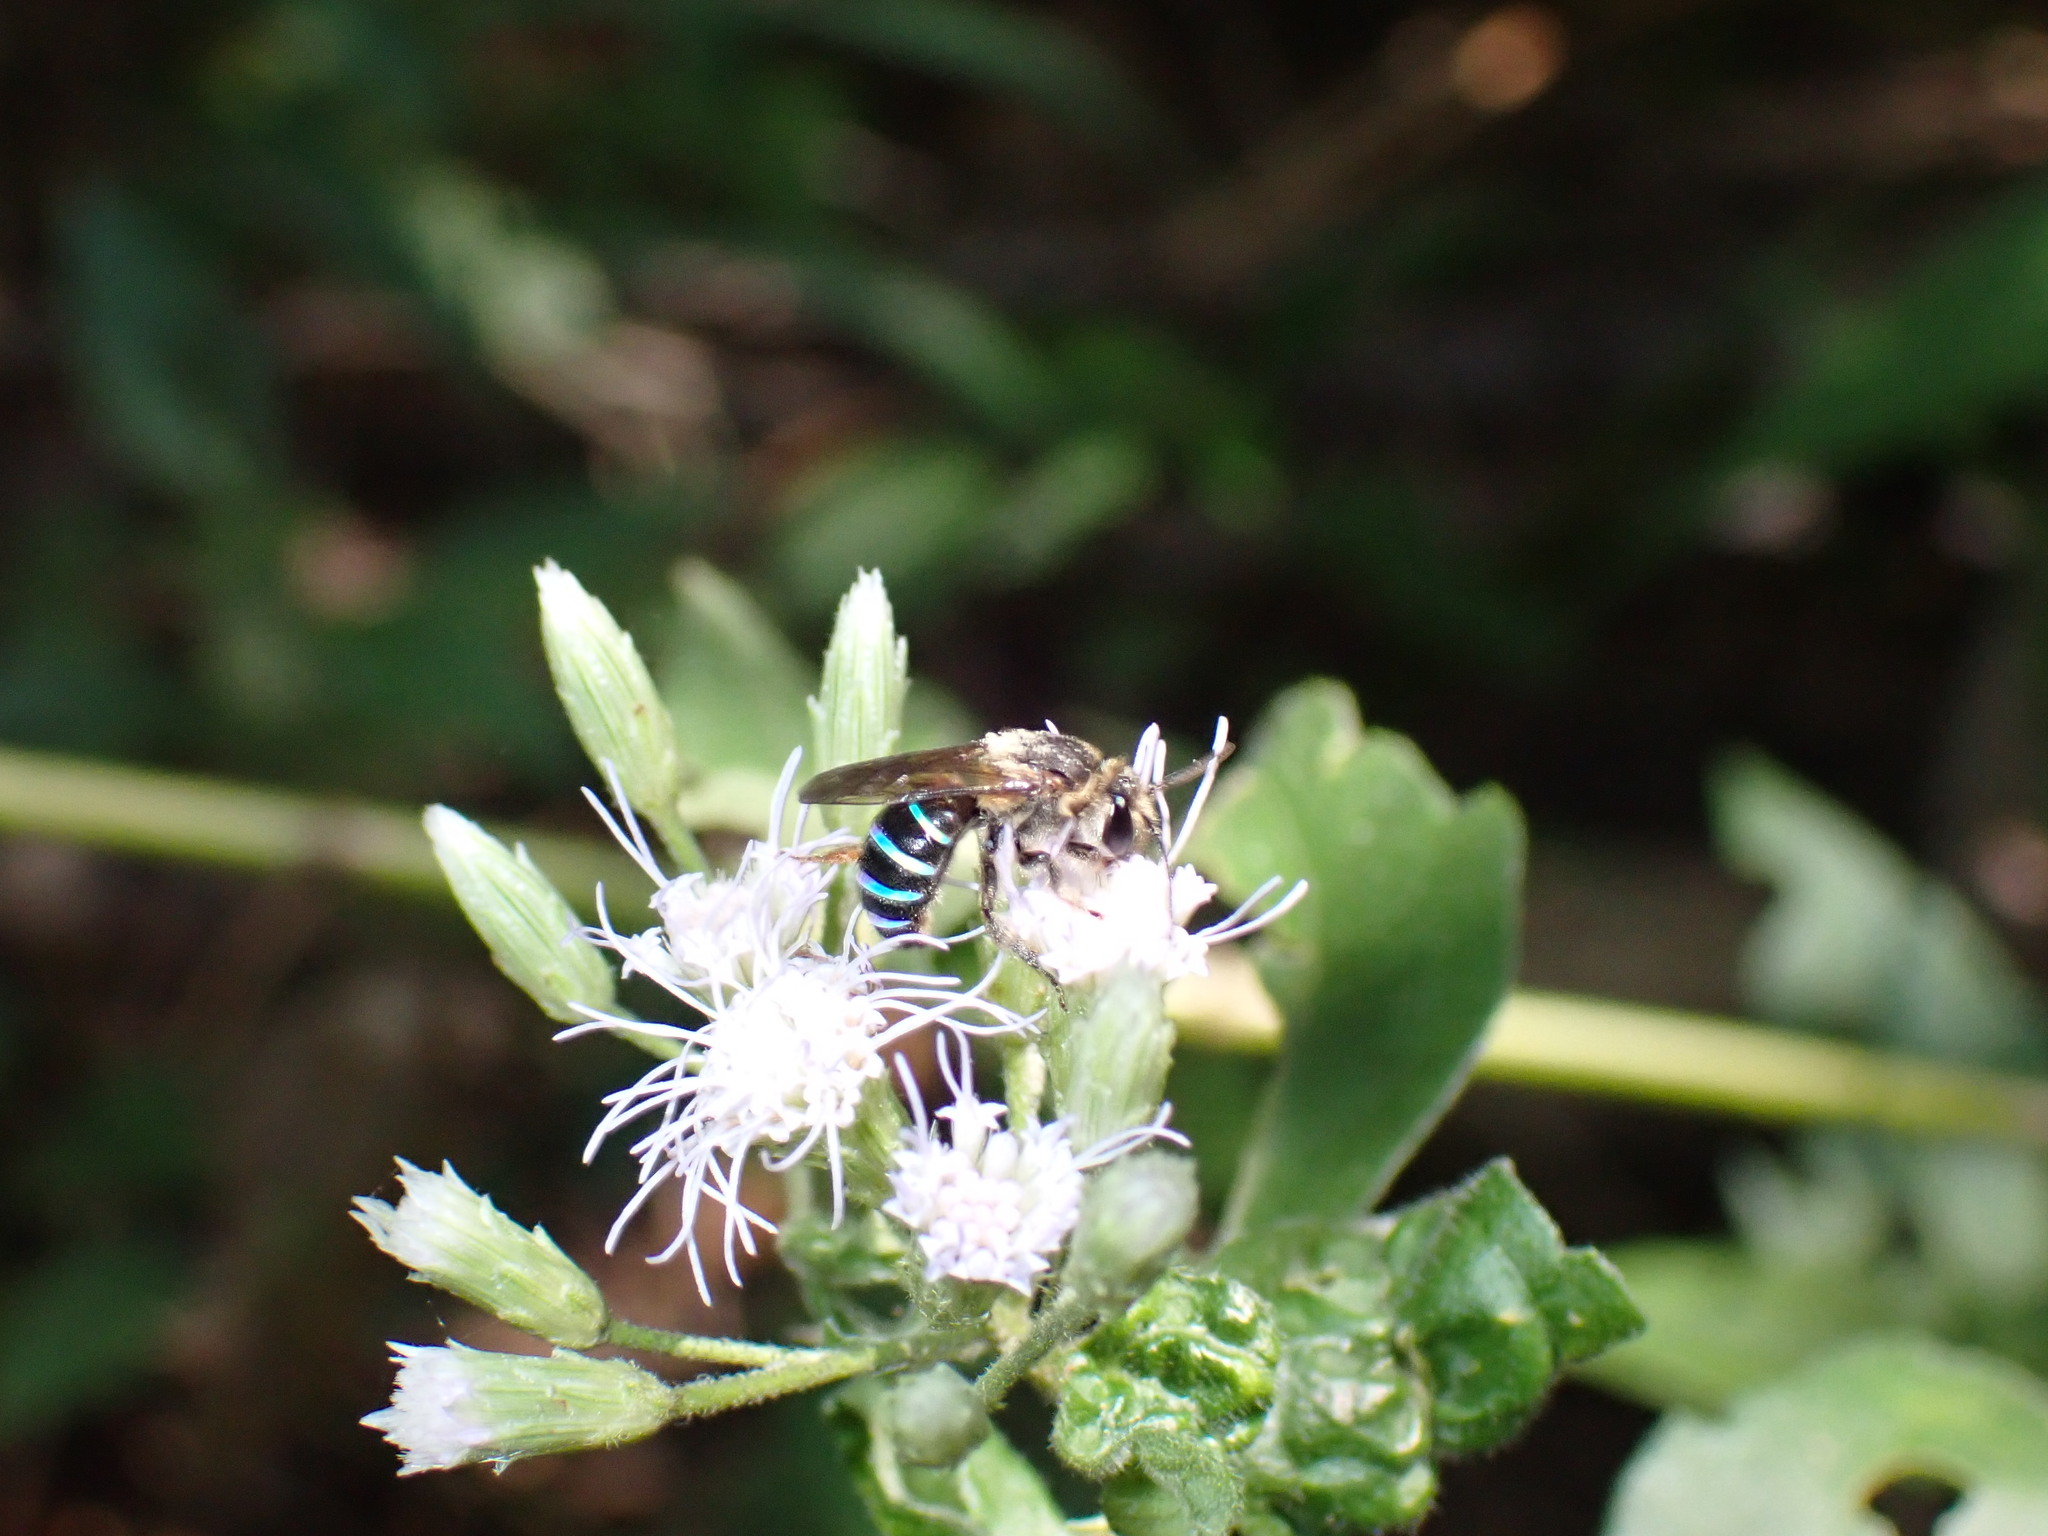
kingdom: Animalia
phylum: Arthropoda
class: Insecta
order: Hymenoptera
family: Halictidae
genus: Nomia
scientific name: Nomia strigata
